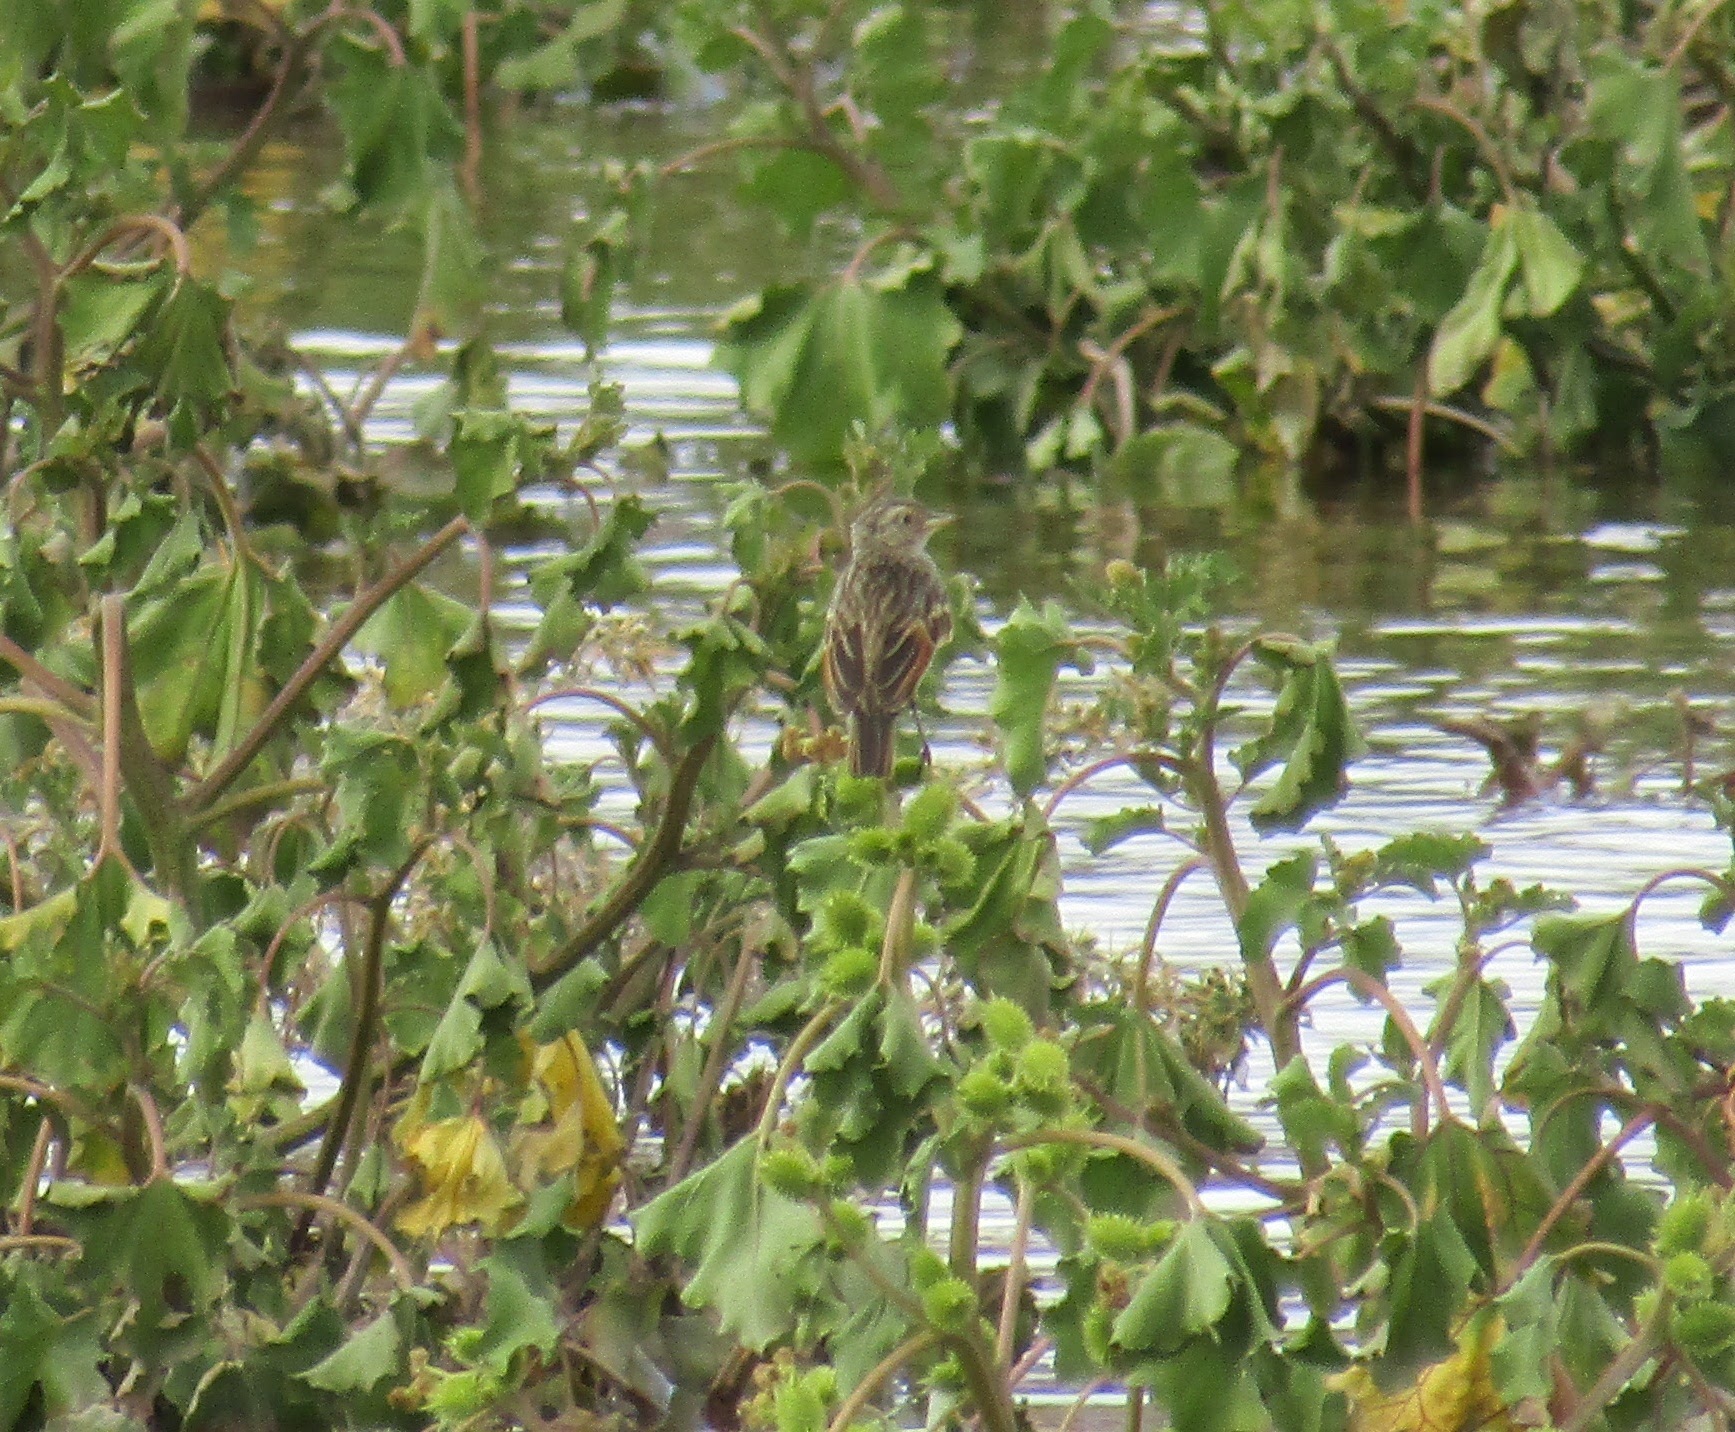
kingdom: Animalia
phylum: Chordata
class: Aves
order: Passeriformes
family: Tyrannidae
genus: Hymenops
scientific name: Hymenops perspicillatus
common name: Spectacled tyrant
